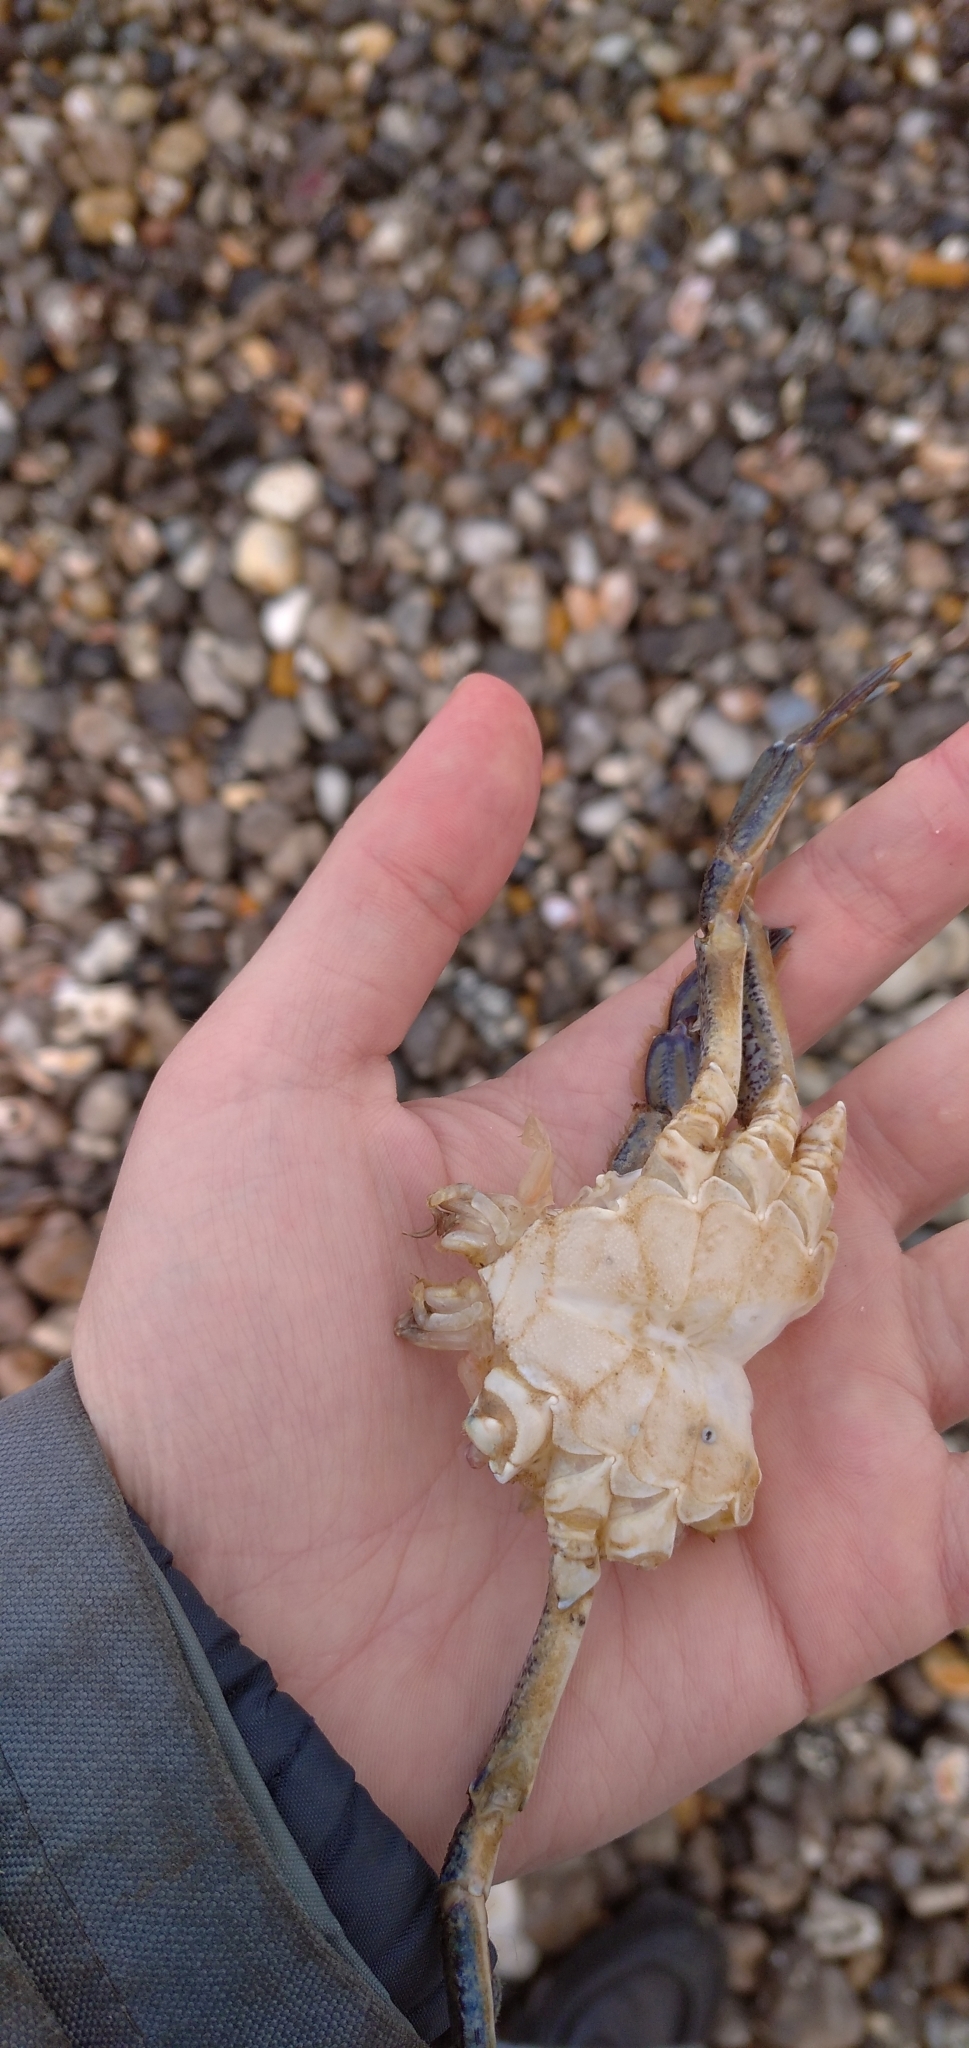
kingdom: Animalia
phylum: Arthropoda
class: Malacostraca
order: Decapoda
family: Polybiidae
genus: Necora
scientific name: Necora puber
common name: Velvet swimming crab
